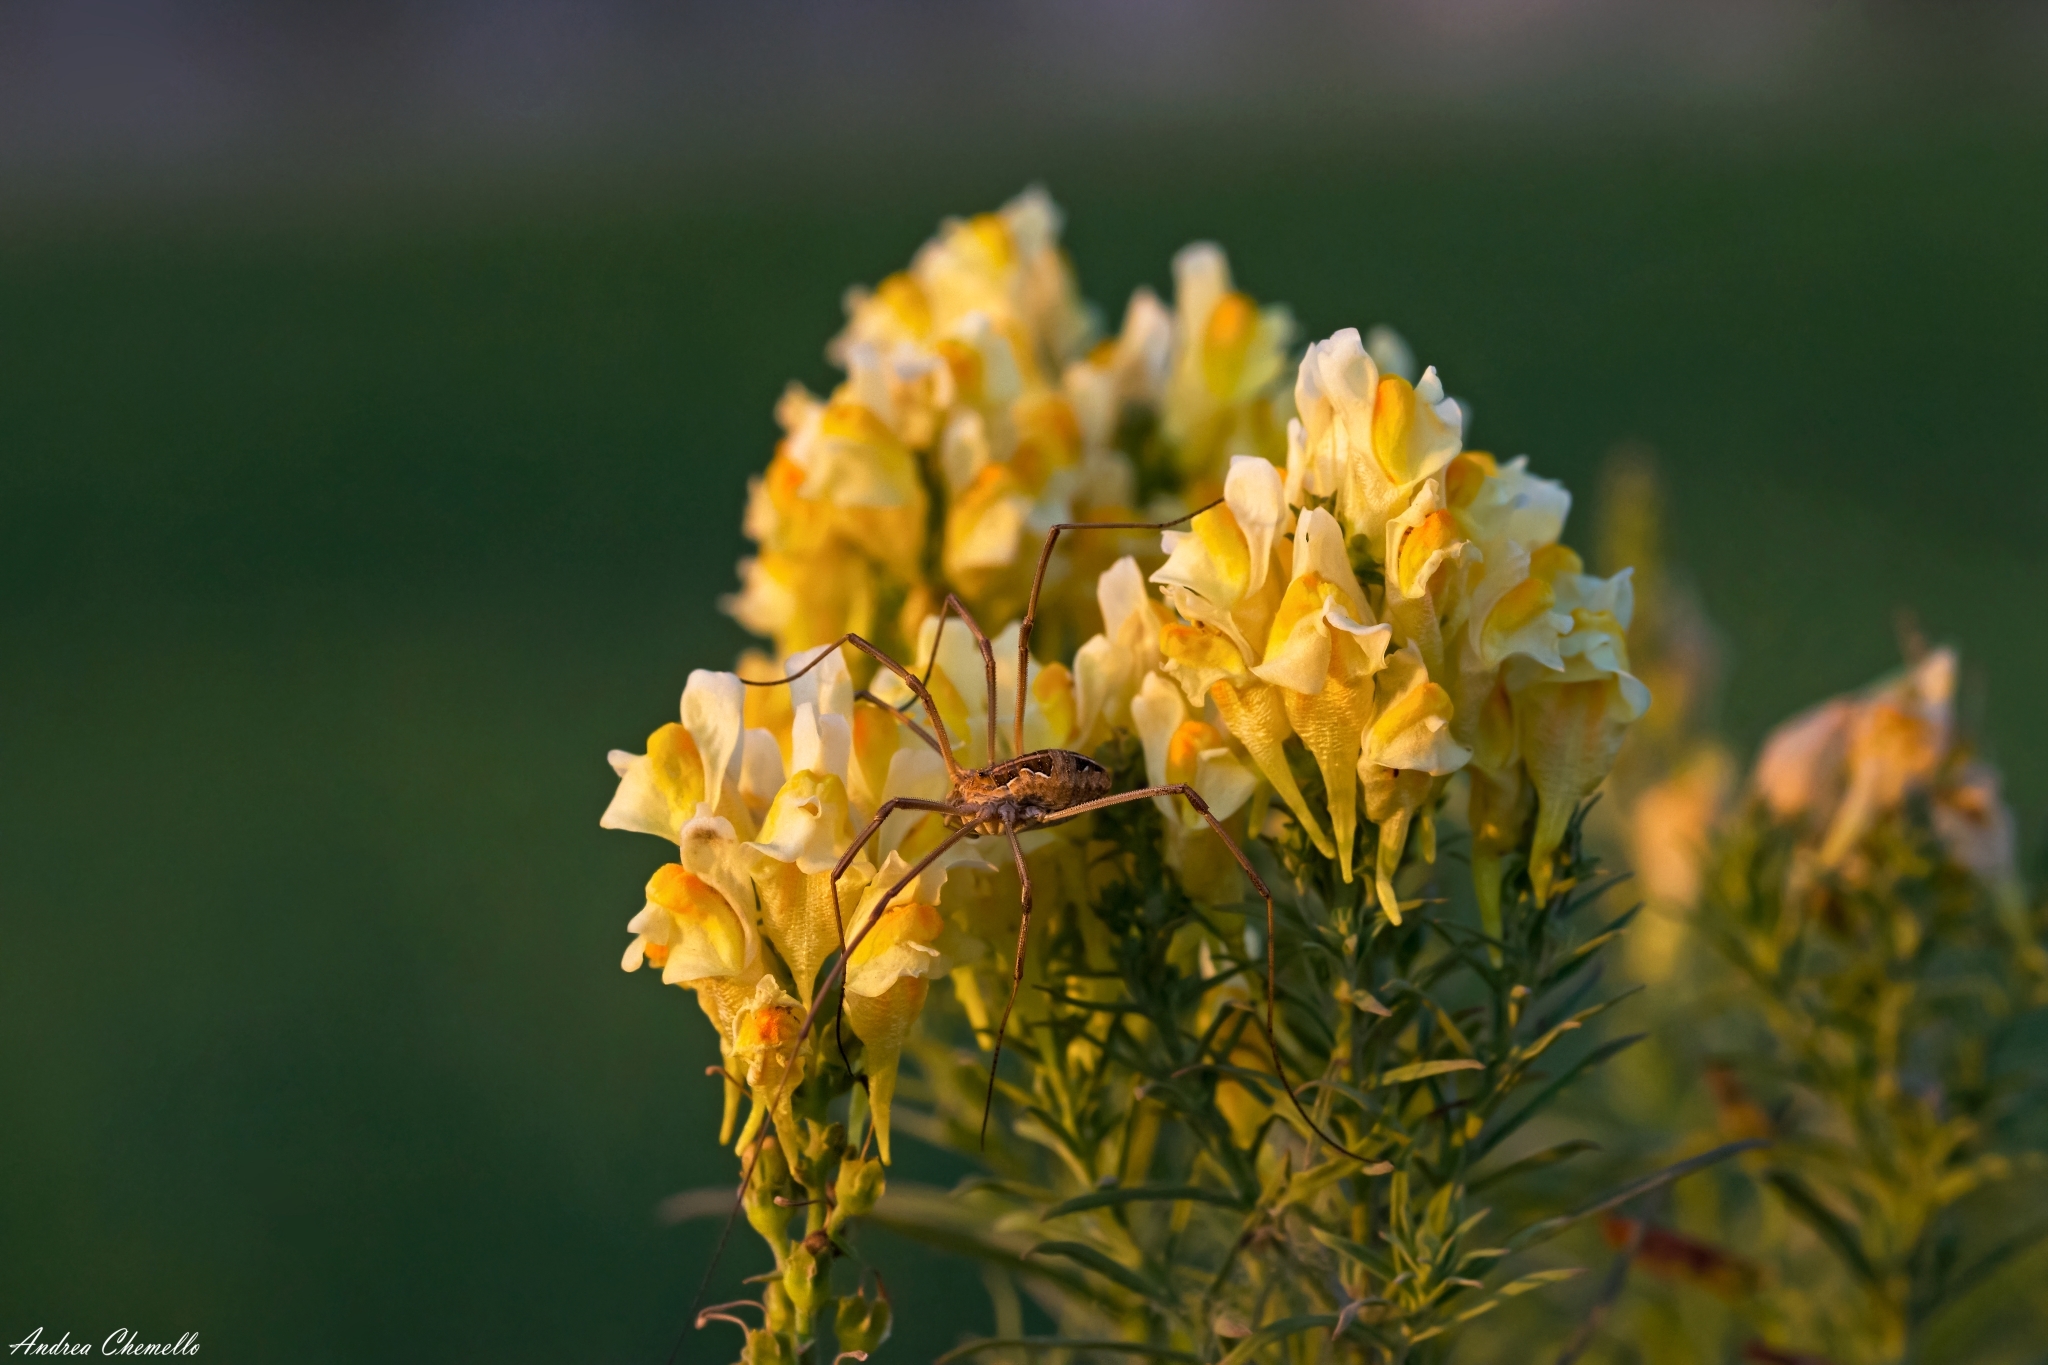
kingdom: Plantae
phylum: Tracheophyta
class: Magnoliopsida
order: Lamiales
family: Plantaginaceae
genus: Linaria
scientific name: Linaria vulgaris
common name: Butter and eggs
